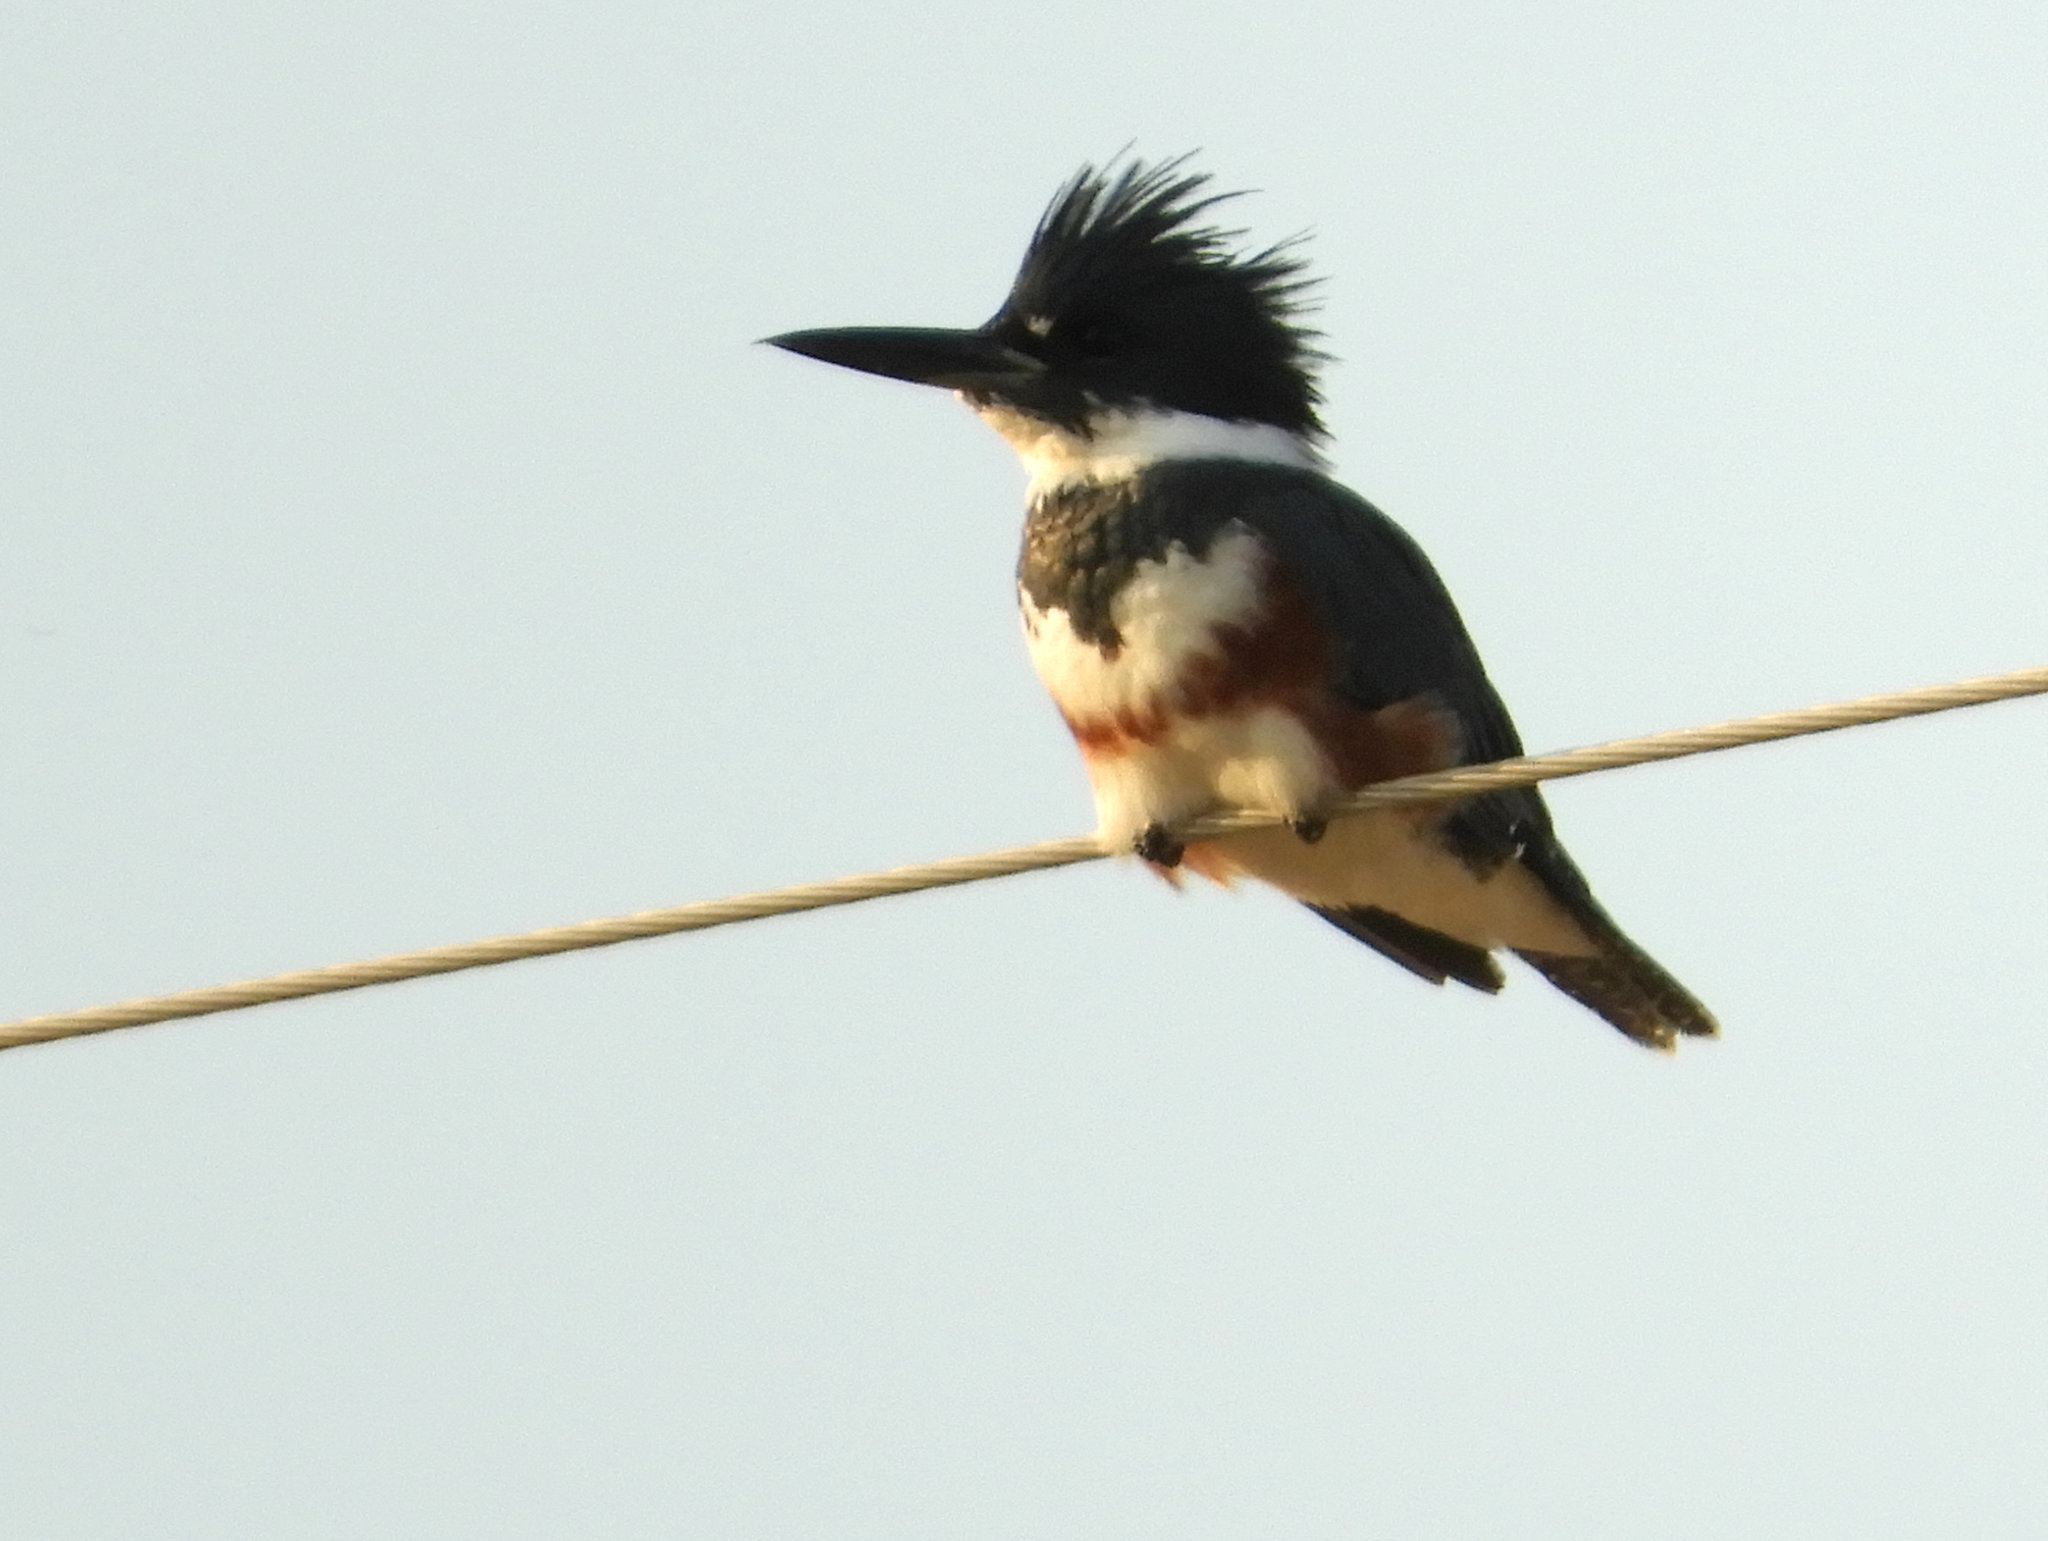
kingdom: Animalia
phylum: Chordata
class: Aves
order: Coraciiformes
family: Alcedinidae
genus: Megaceryle
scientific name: Megaceryle alcyon
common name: Belted kingfisher
